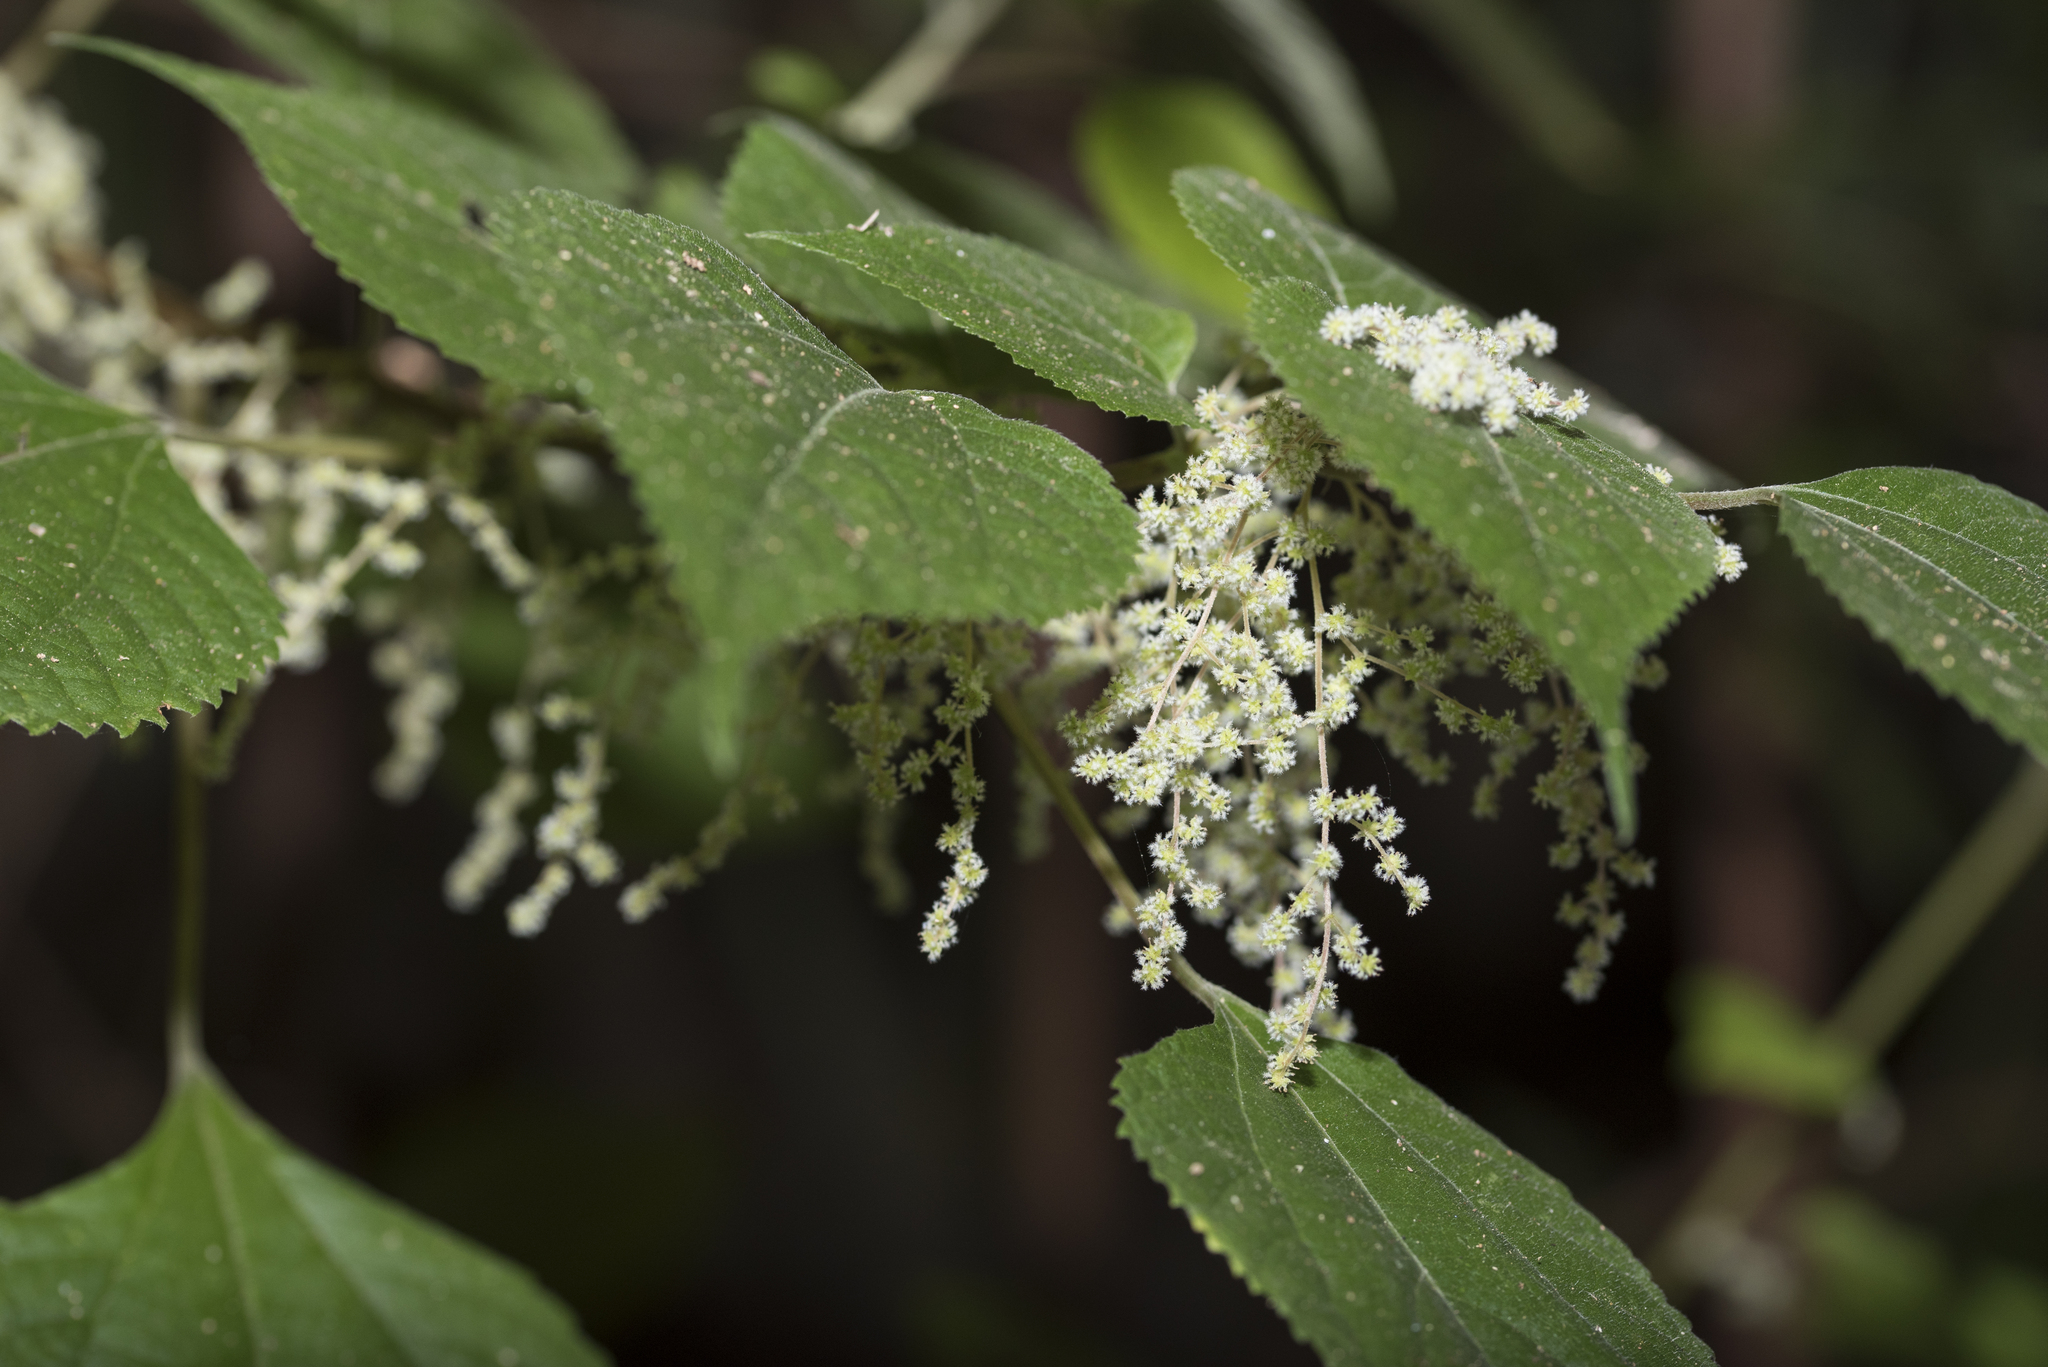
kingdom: Plantae
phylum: Tracheophyta
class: Magnoliopsida
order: Rosales
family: Urticaceae
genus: Boehmeria
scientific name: Boehmeria nivea
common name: Ramie chinese grass
